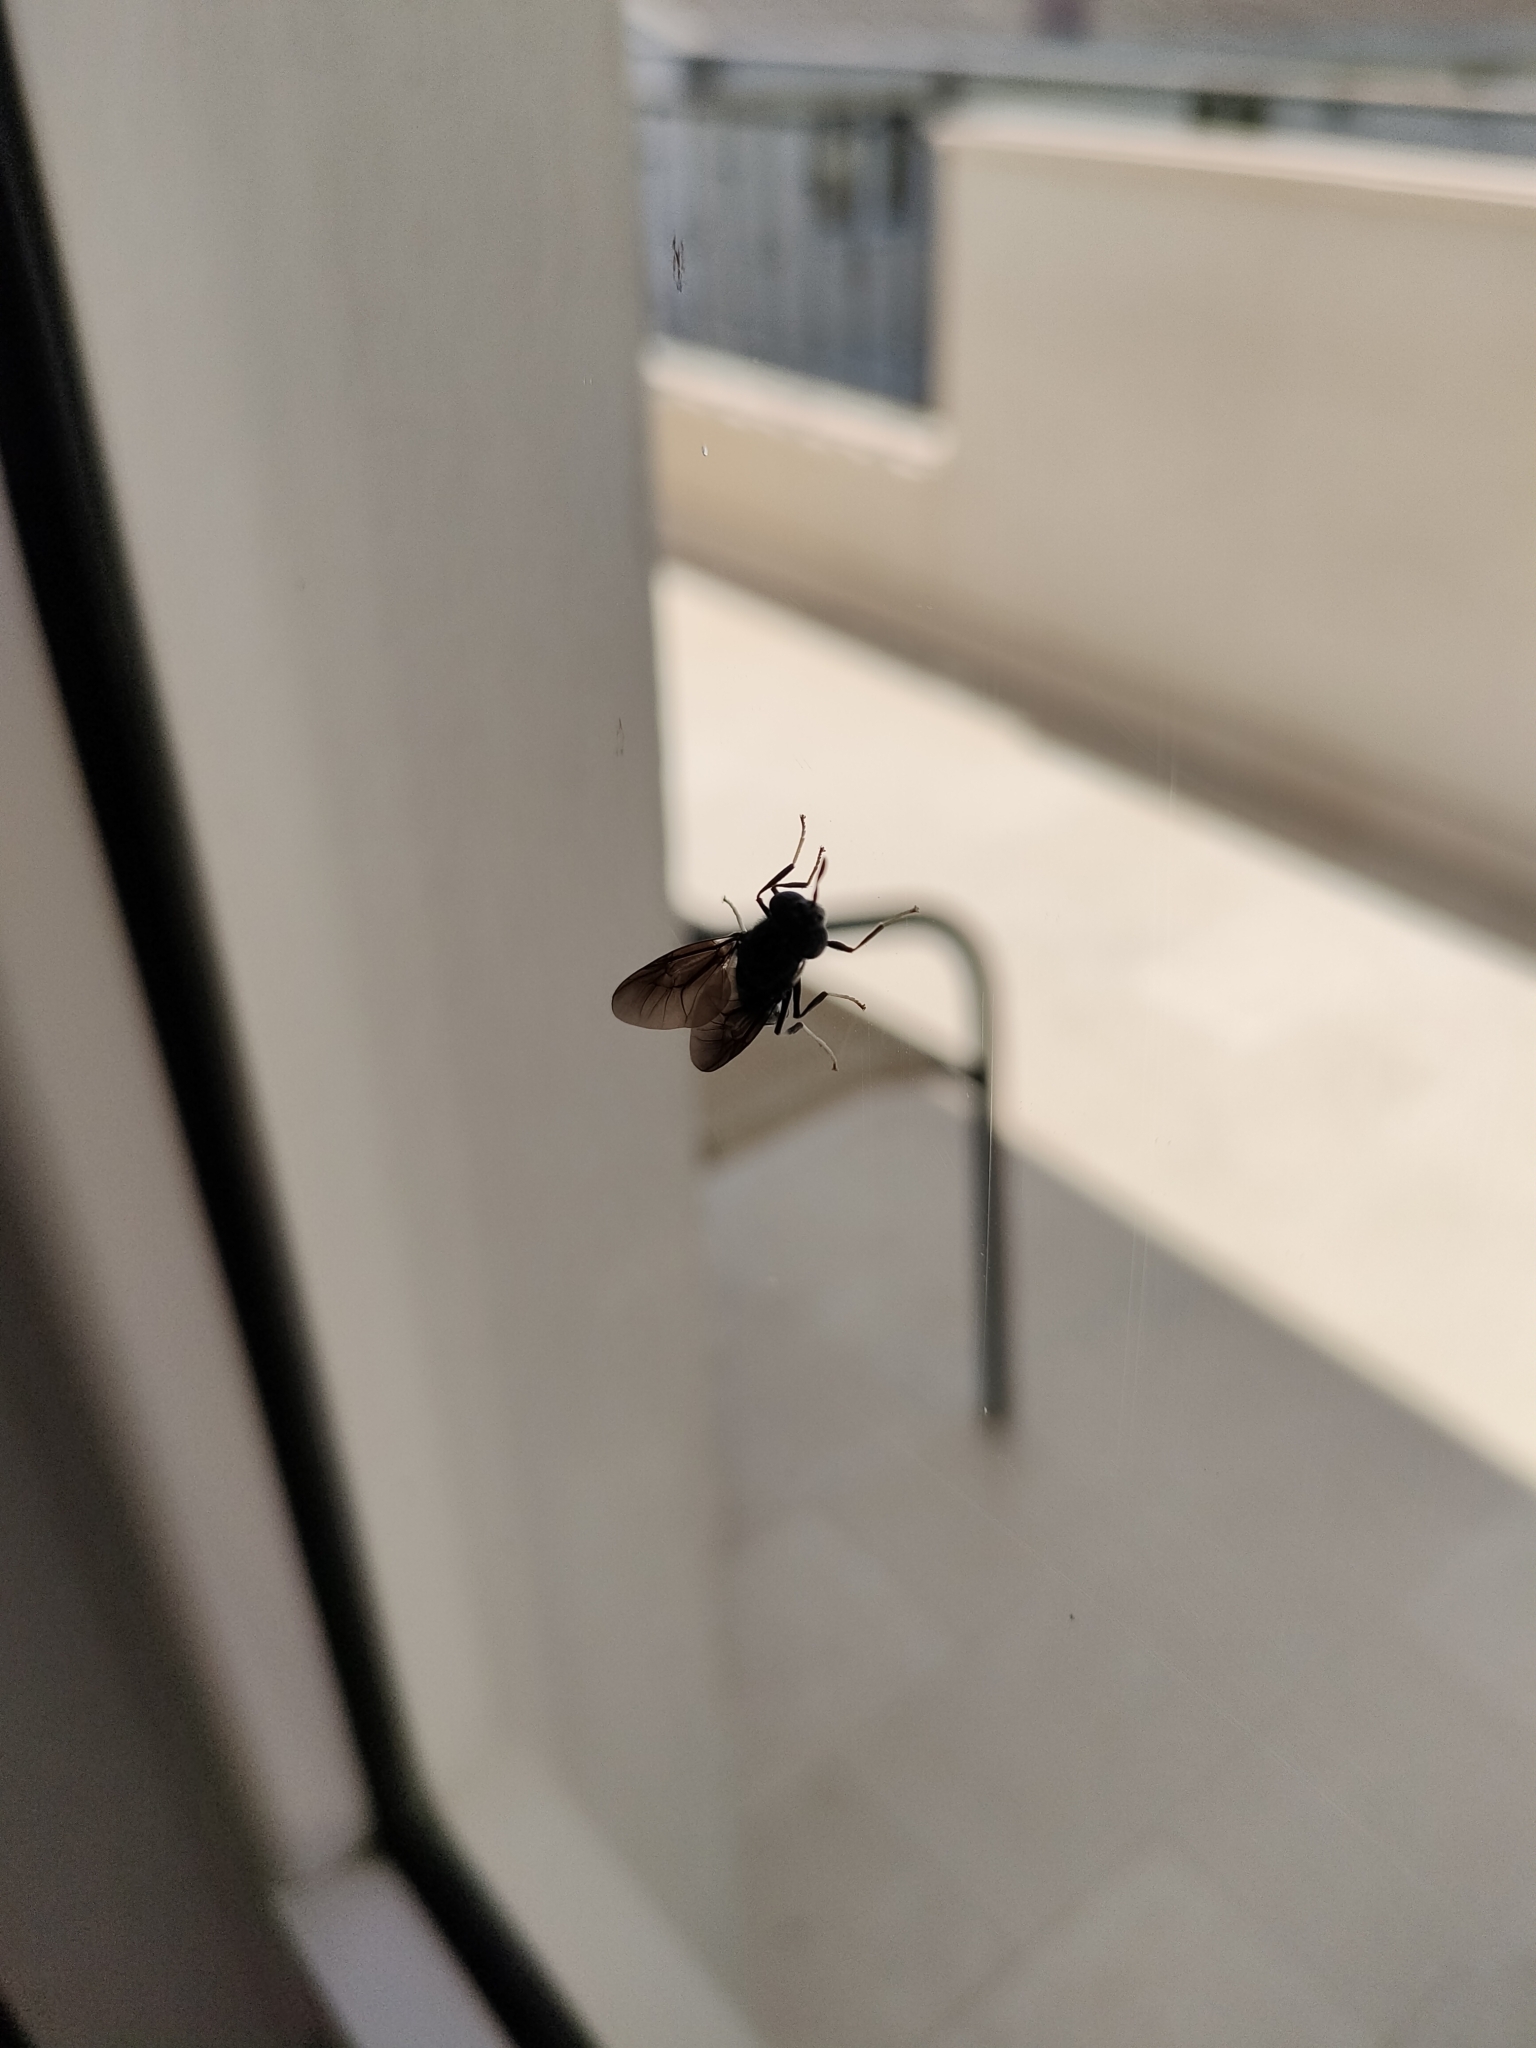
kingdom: Animalia
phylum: Arthropoda
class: Insecta
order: Diptera
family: Stratiomyidae
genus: Hermetia
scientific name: Hermetia illucens
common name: Black soldier fly
